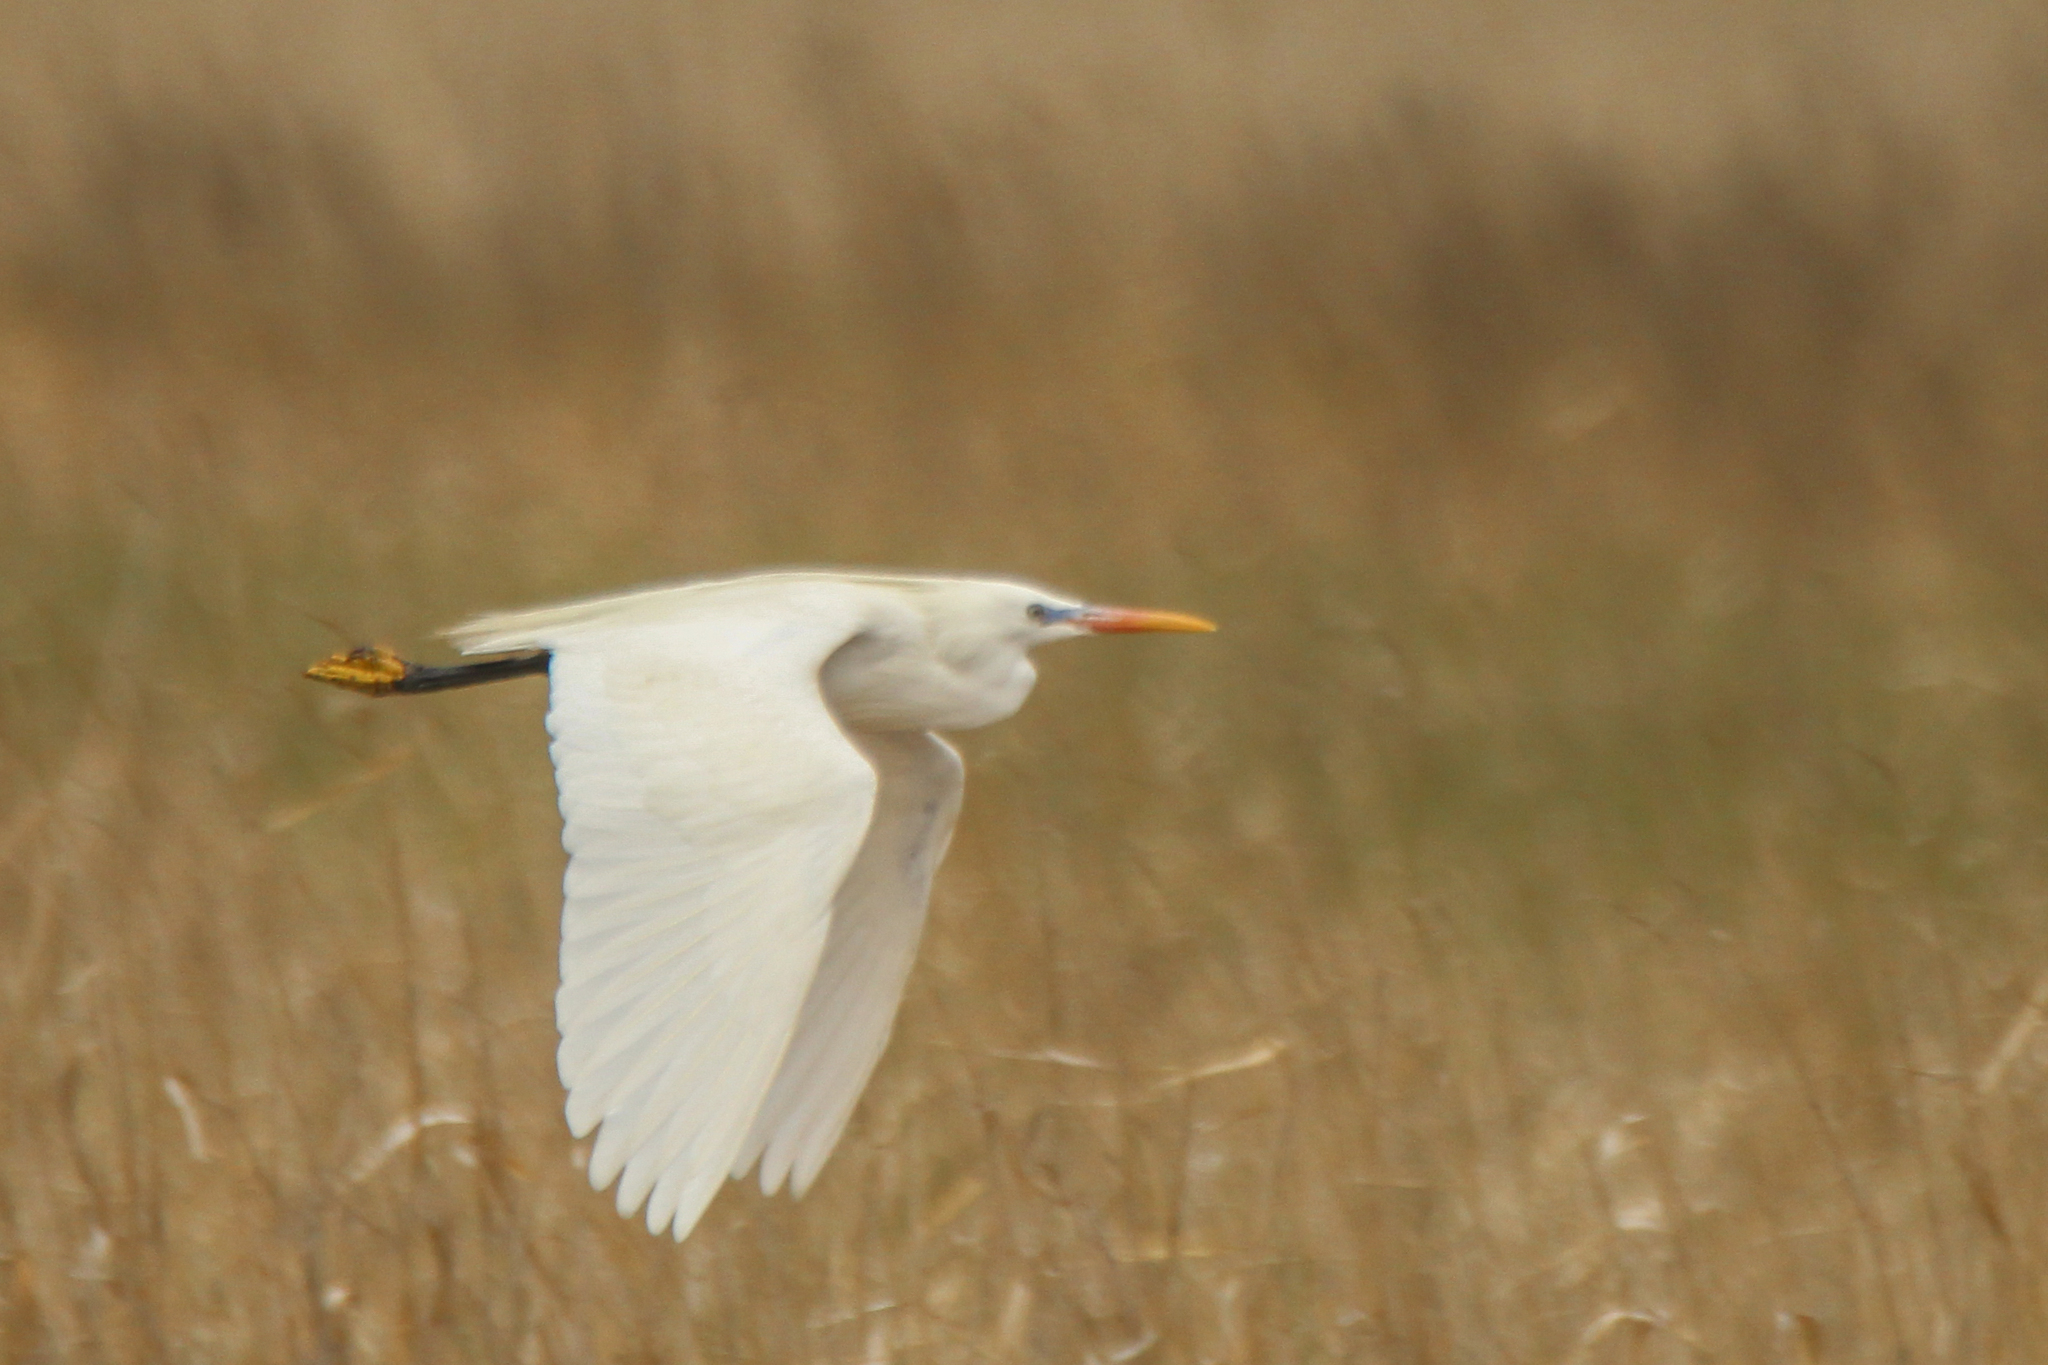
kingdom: Animalia
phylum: Chordata
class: Aves
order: Pelecaniformes
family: Ardeidae
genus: Egretta
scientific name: Egretta eulophotes
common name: Chinese egret
